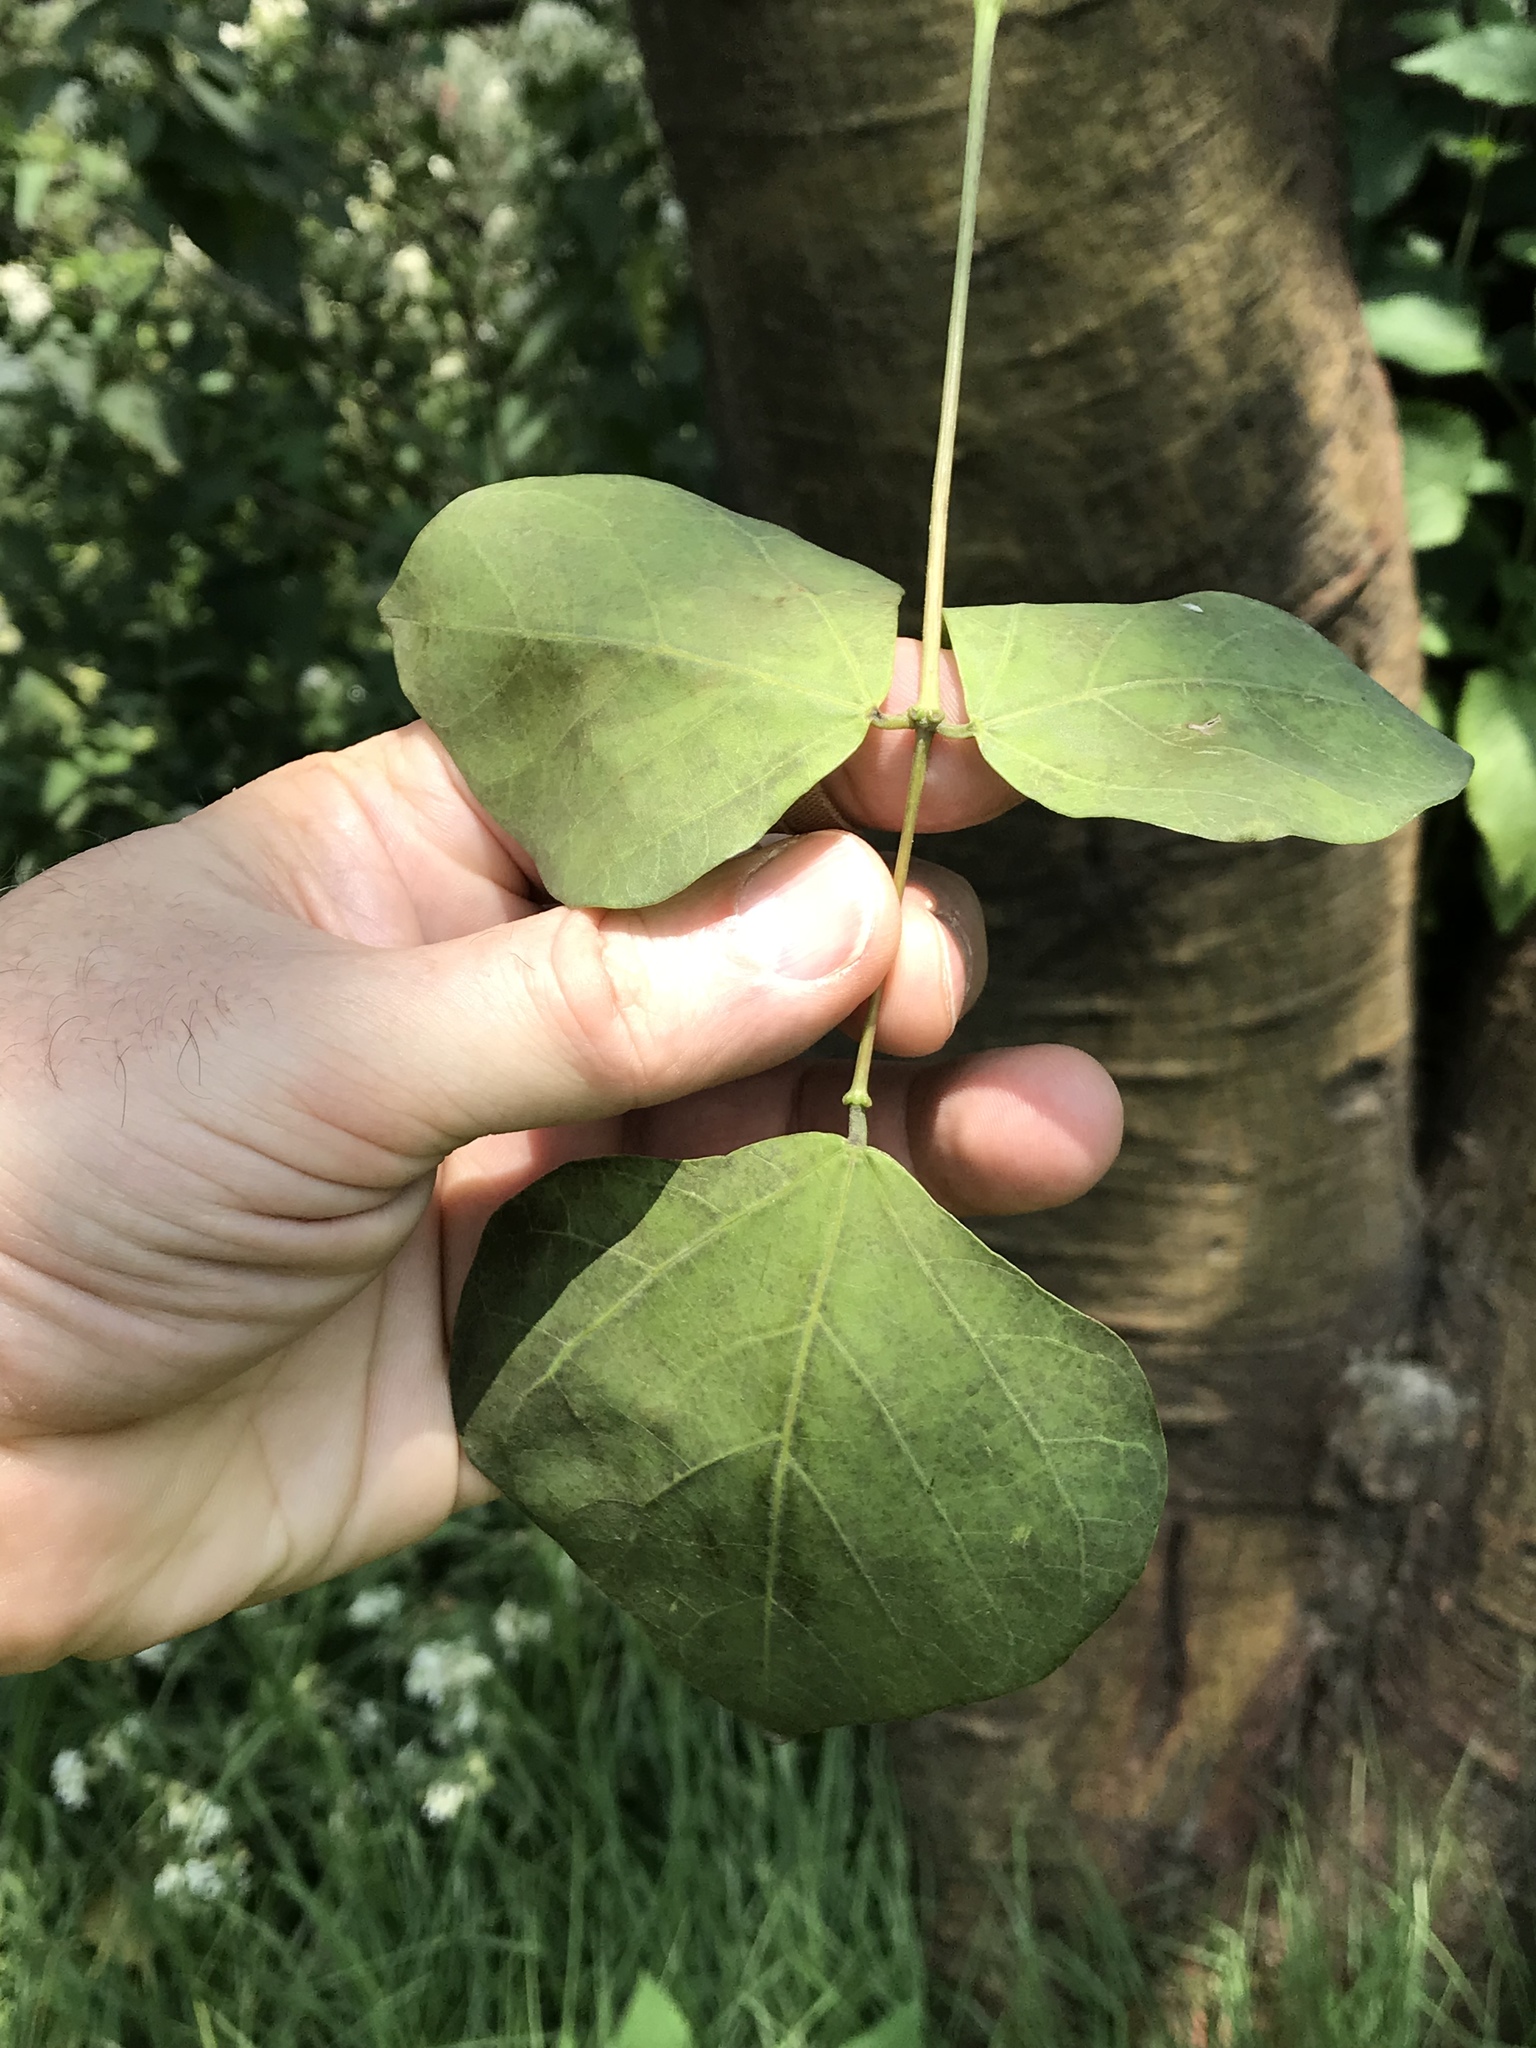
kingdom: Plantae
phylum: Tracheophyta
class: Magnoliopsida
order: Fabales
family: Fabaceae
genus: Erythrina
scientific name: Erythrina americana
